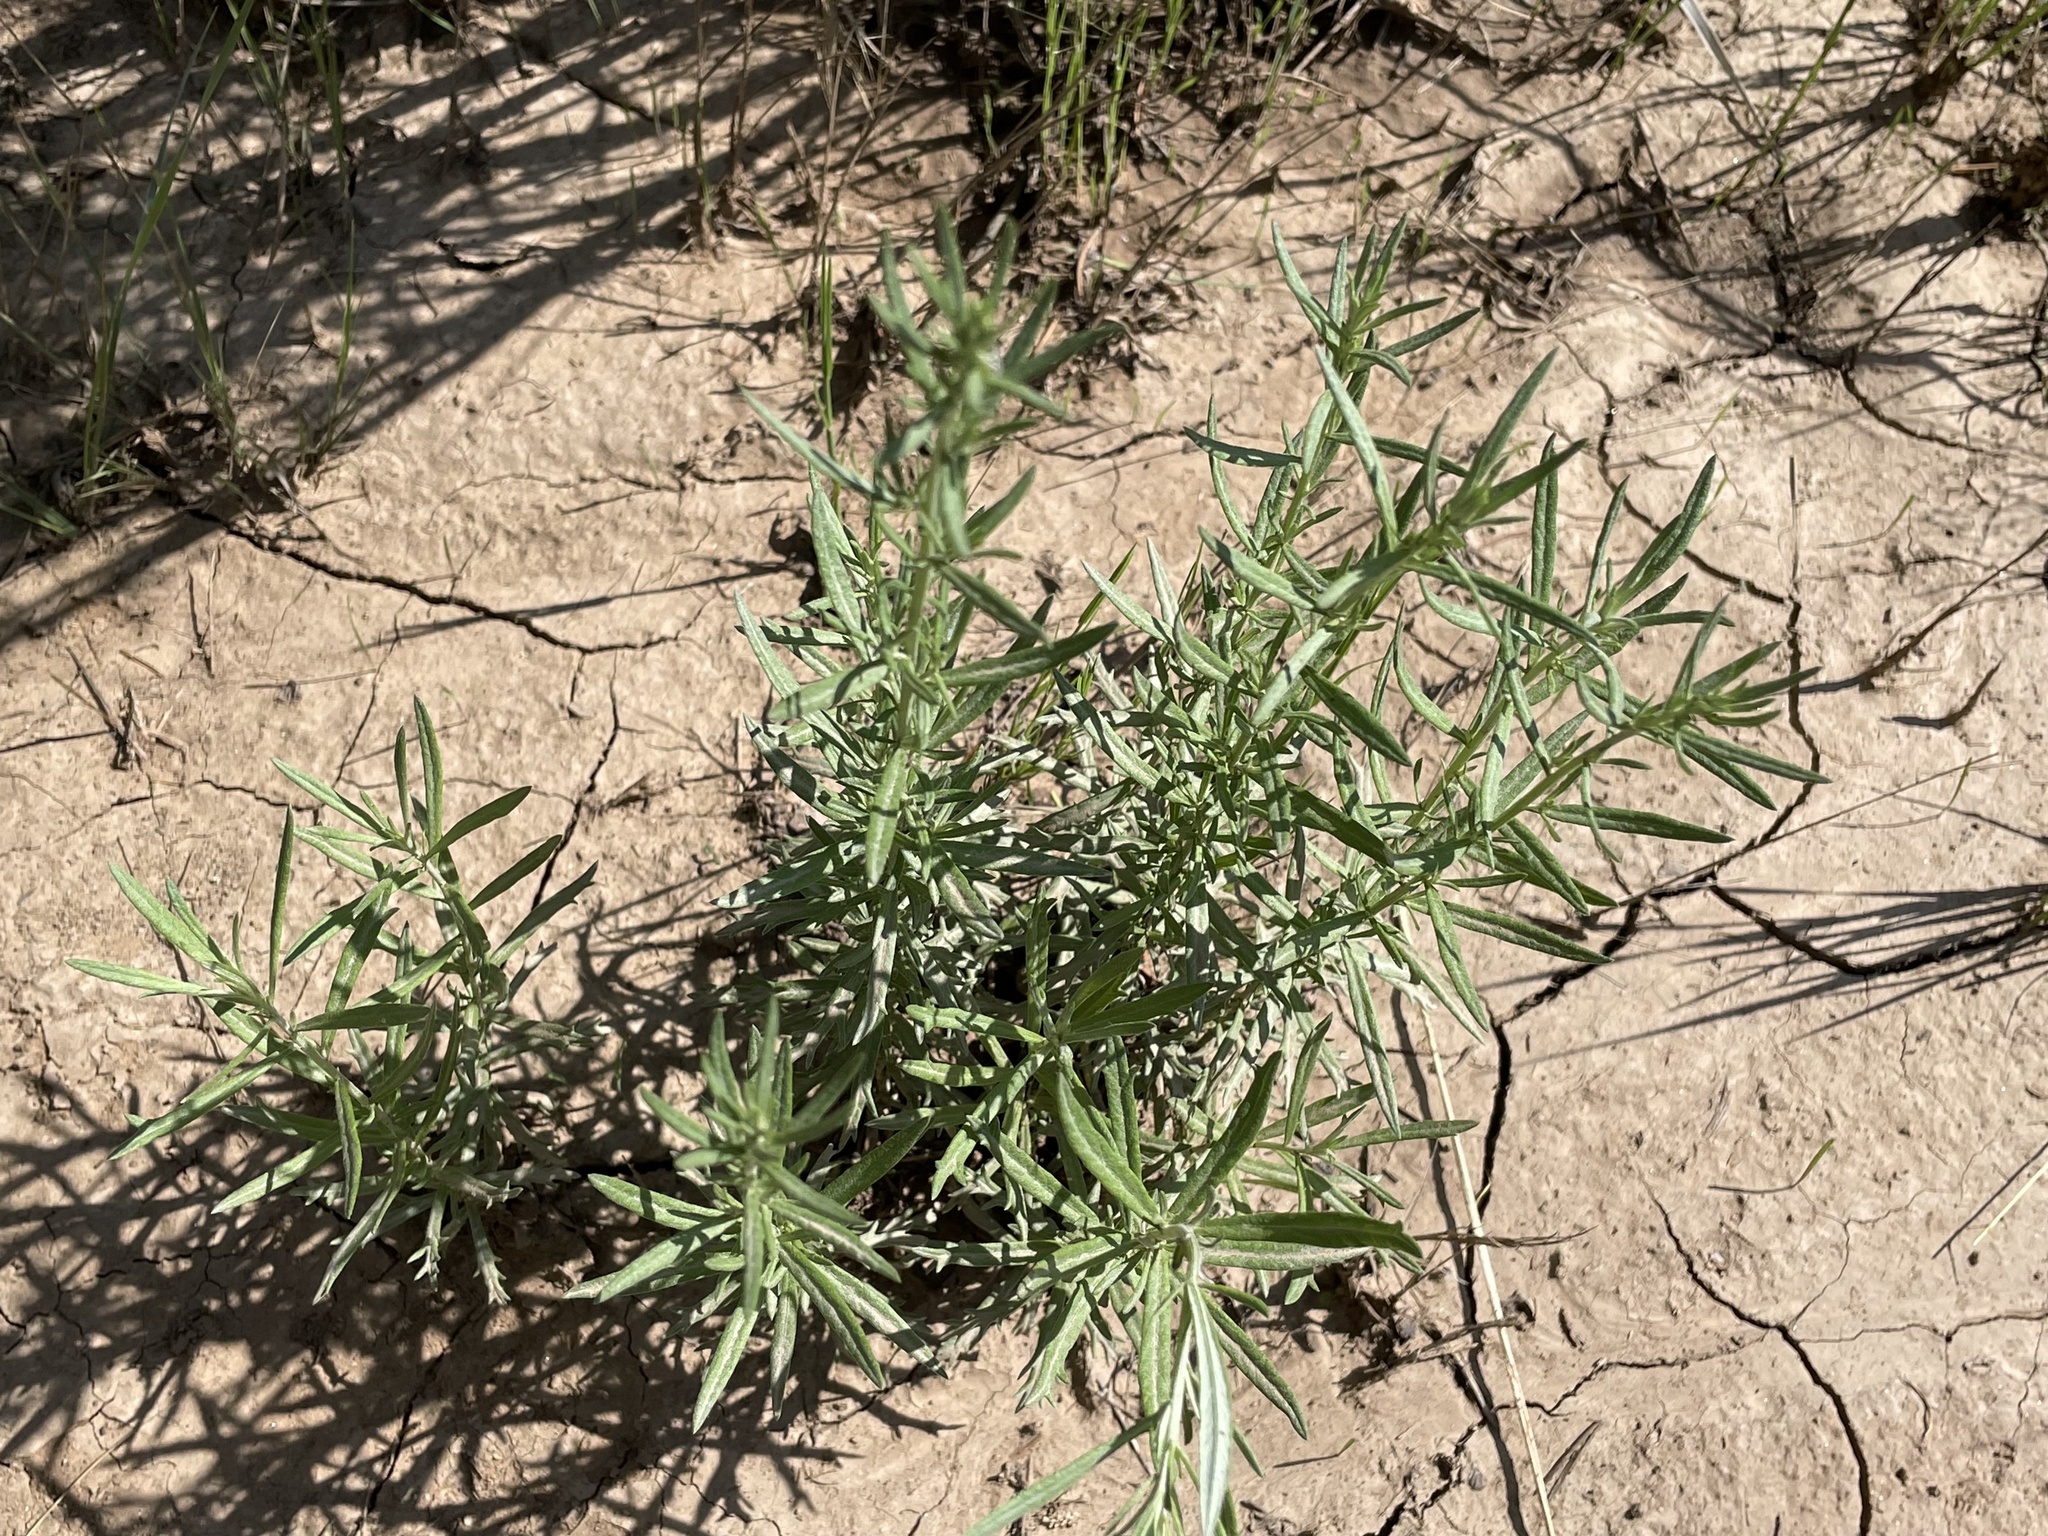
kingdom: Plantae
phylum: Tracheophyta
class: Magnoliopsida
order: Asterales
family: Asteraceae
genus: Artemisia
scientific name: Artemisia ludoviciana
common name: Western mugwort
